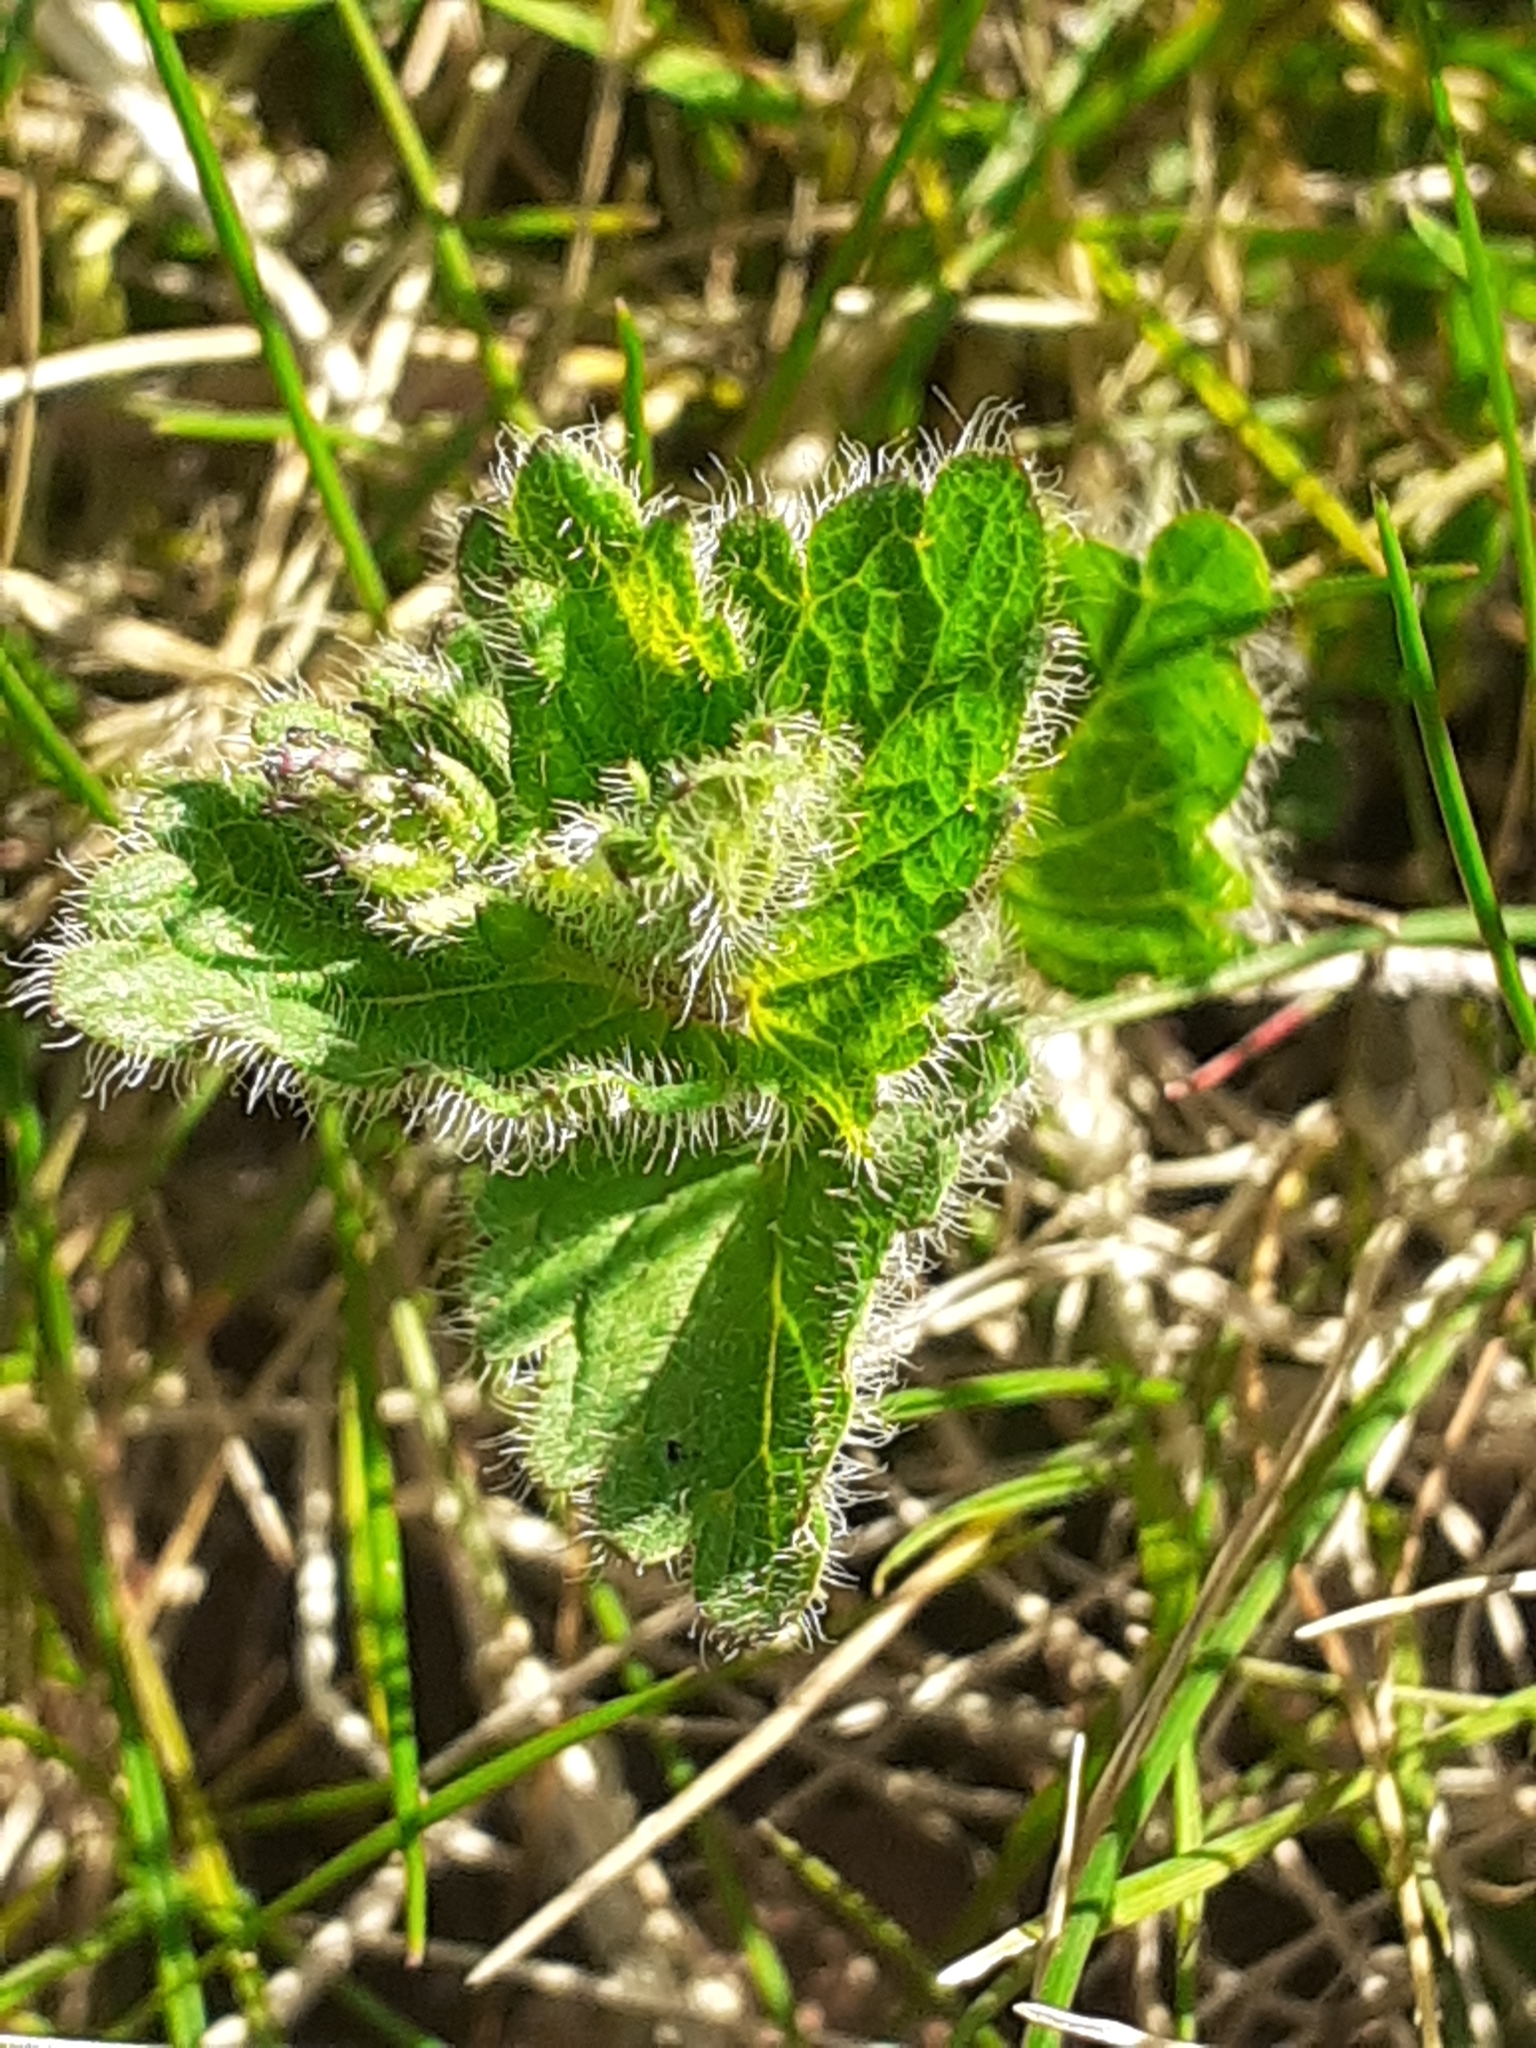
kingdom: Plantae
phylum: Tracheophyta
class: Magnoliopsida
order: Lamiales
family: Plantaginaceae
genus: Veronica
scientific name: Veronica chamaedrys
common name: Germander speedwell
